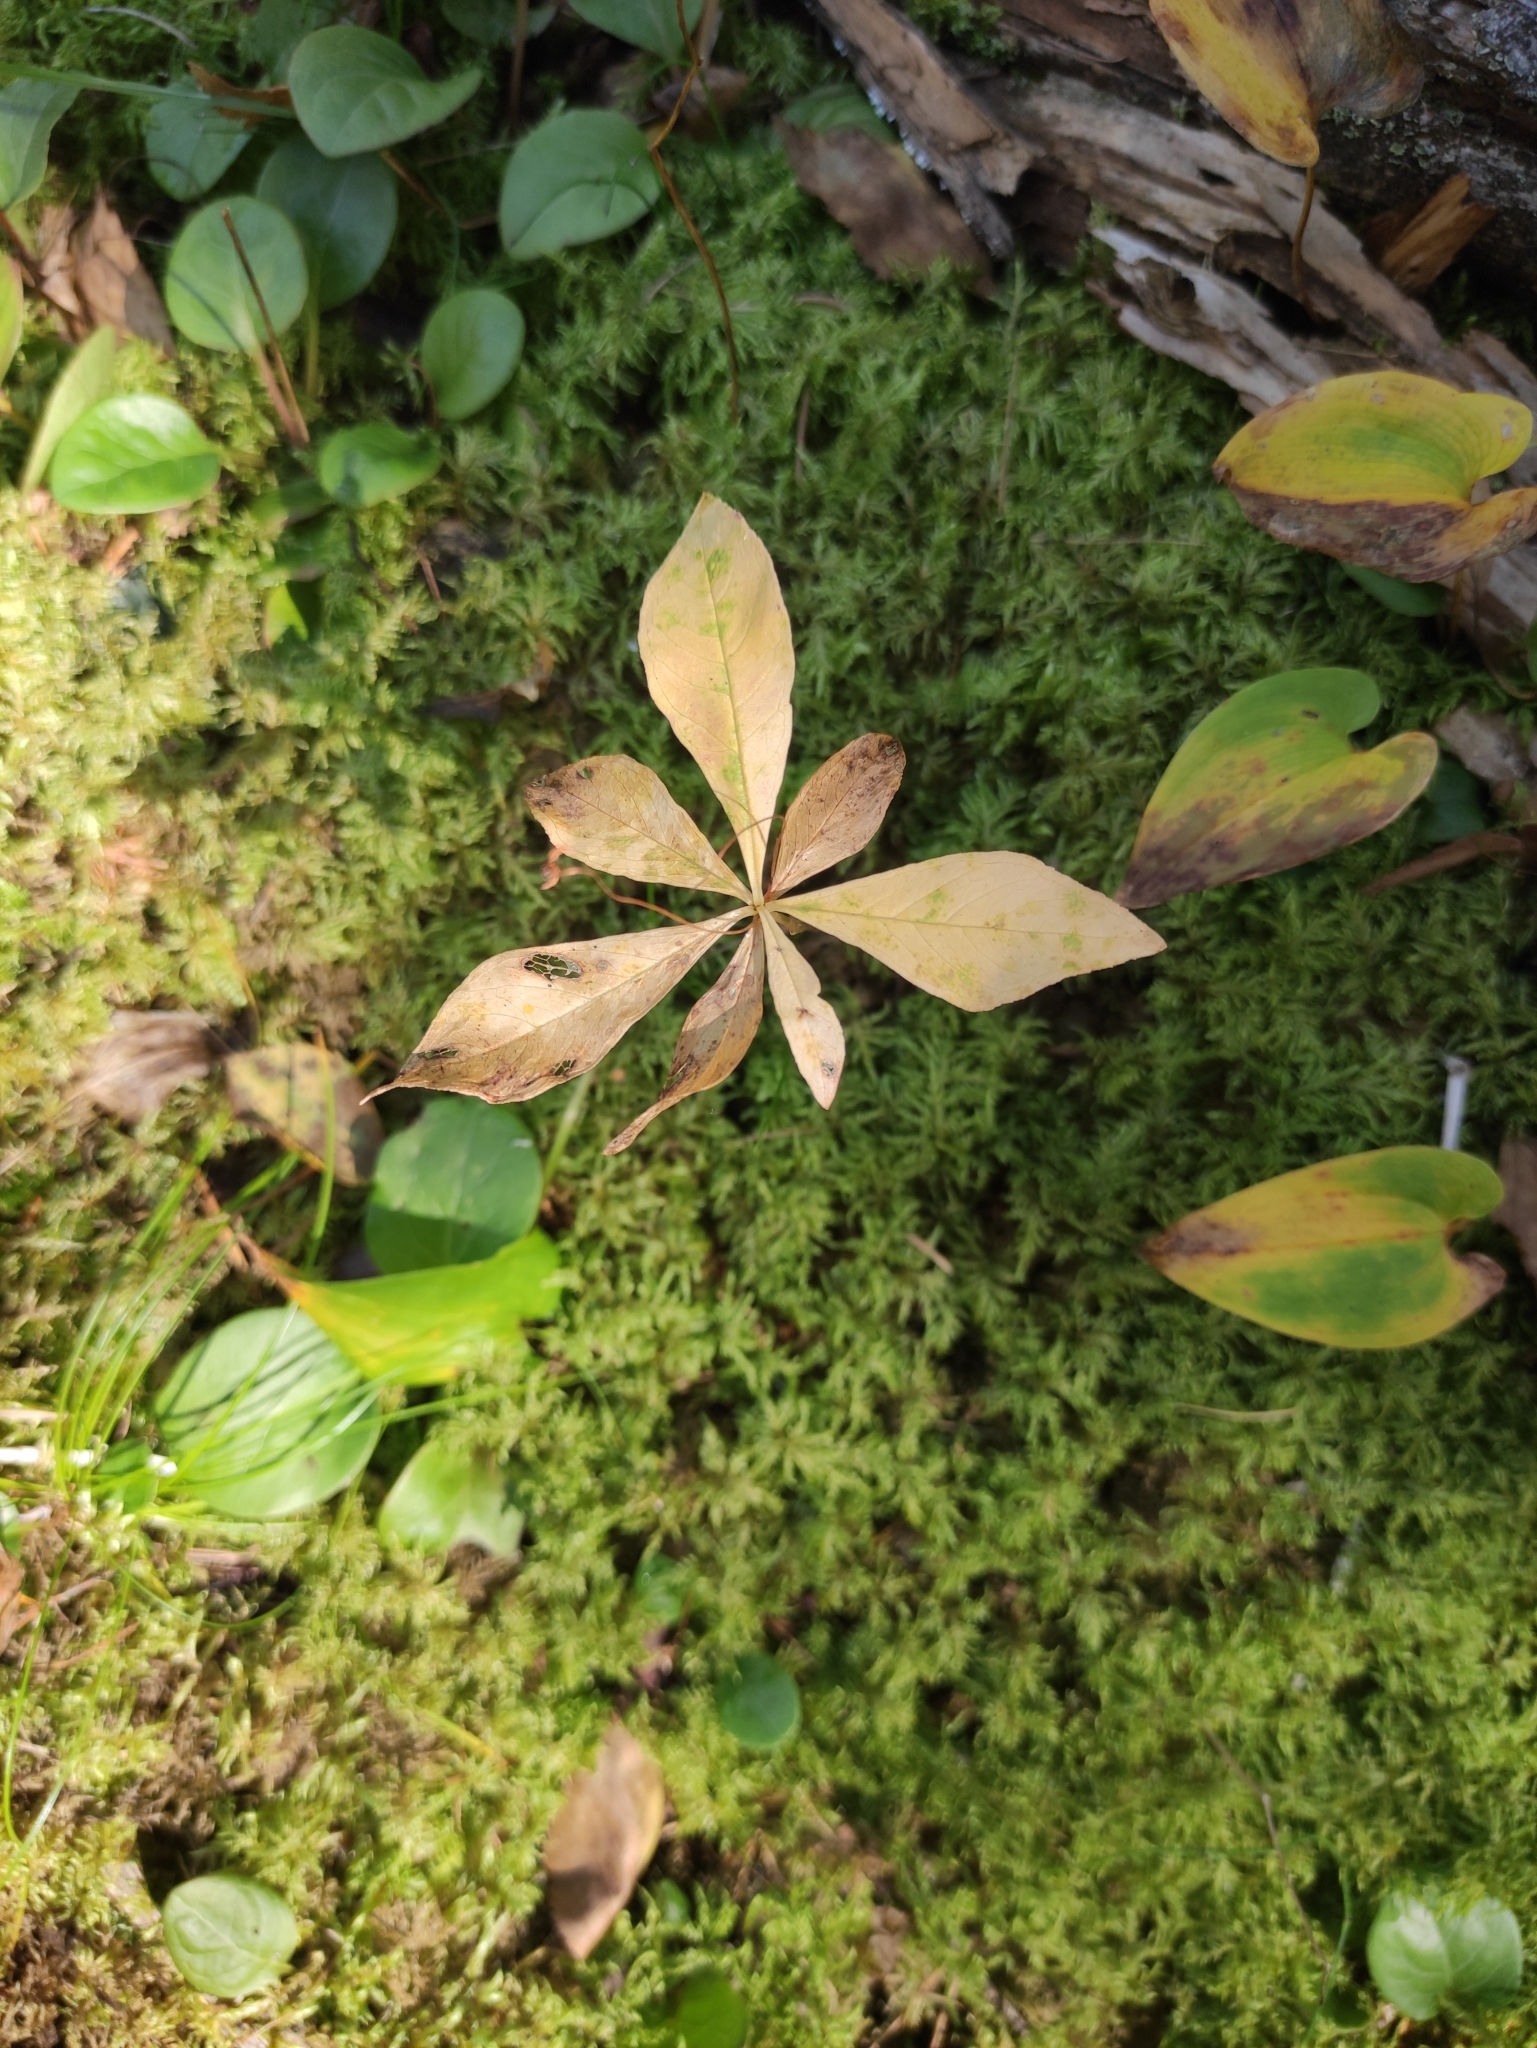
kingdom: Plantae
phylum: Tracheophyta
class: Magnoliopsida
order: Ericales
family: Primulaceae
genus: Lysimachia
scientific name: Lysimachia europaea
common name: Arctic starflower
